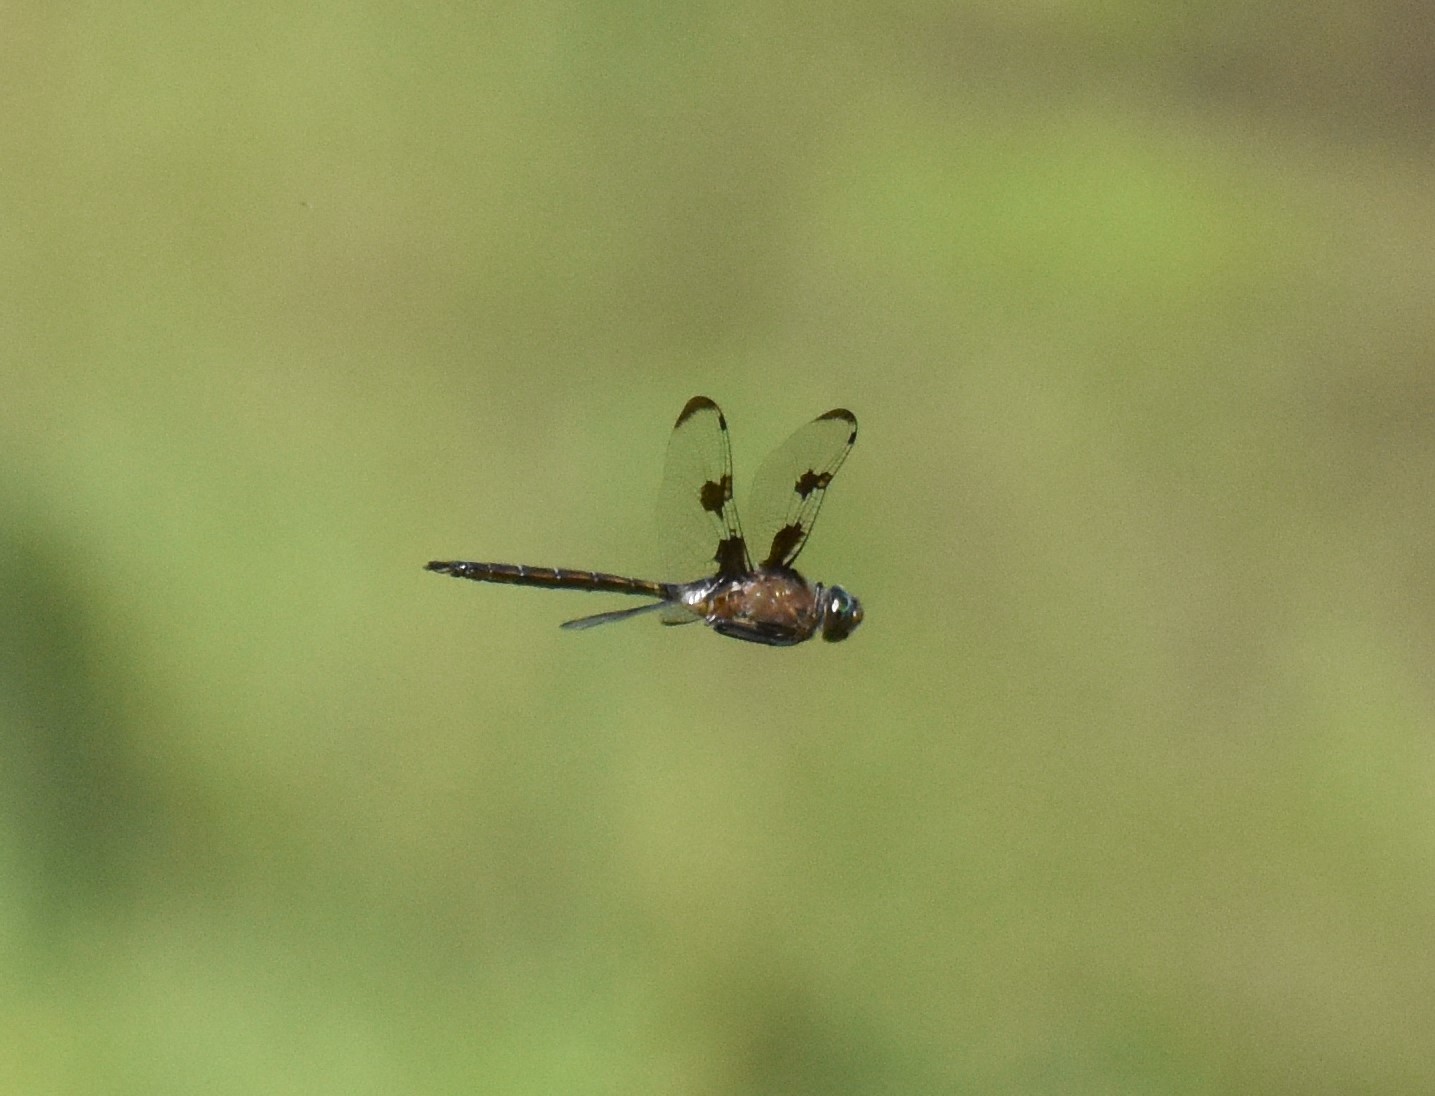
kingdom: Animalia
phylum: Arthropoda
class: Insecta
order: Odonata
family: Corduliidae
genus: Epitheca
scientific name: Epitheca princeps
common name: Prince baskettail
